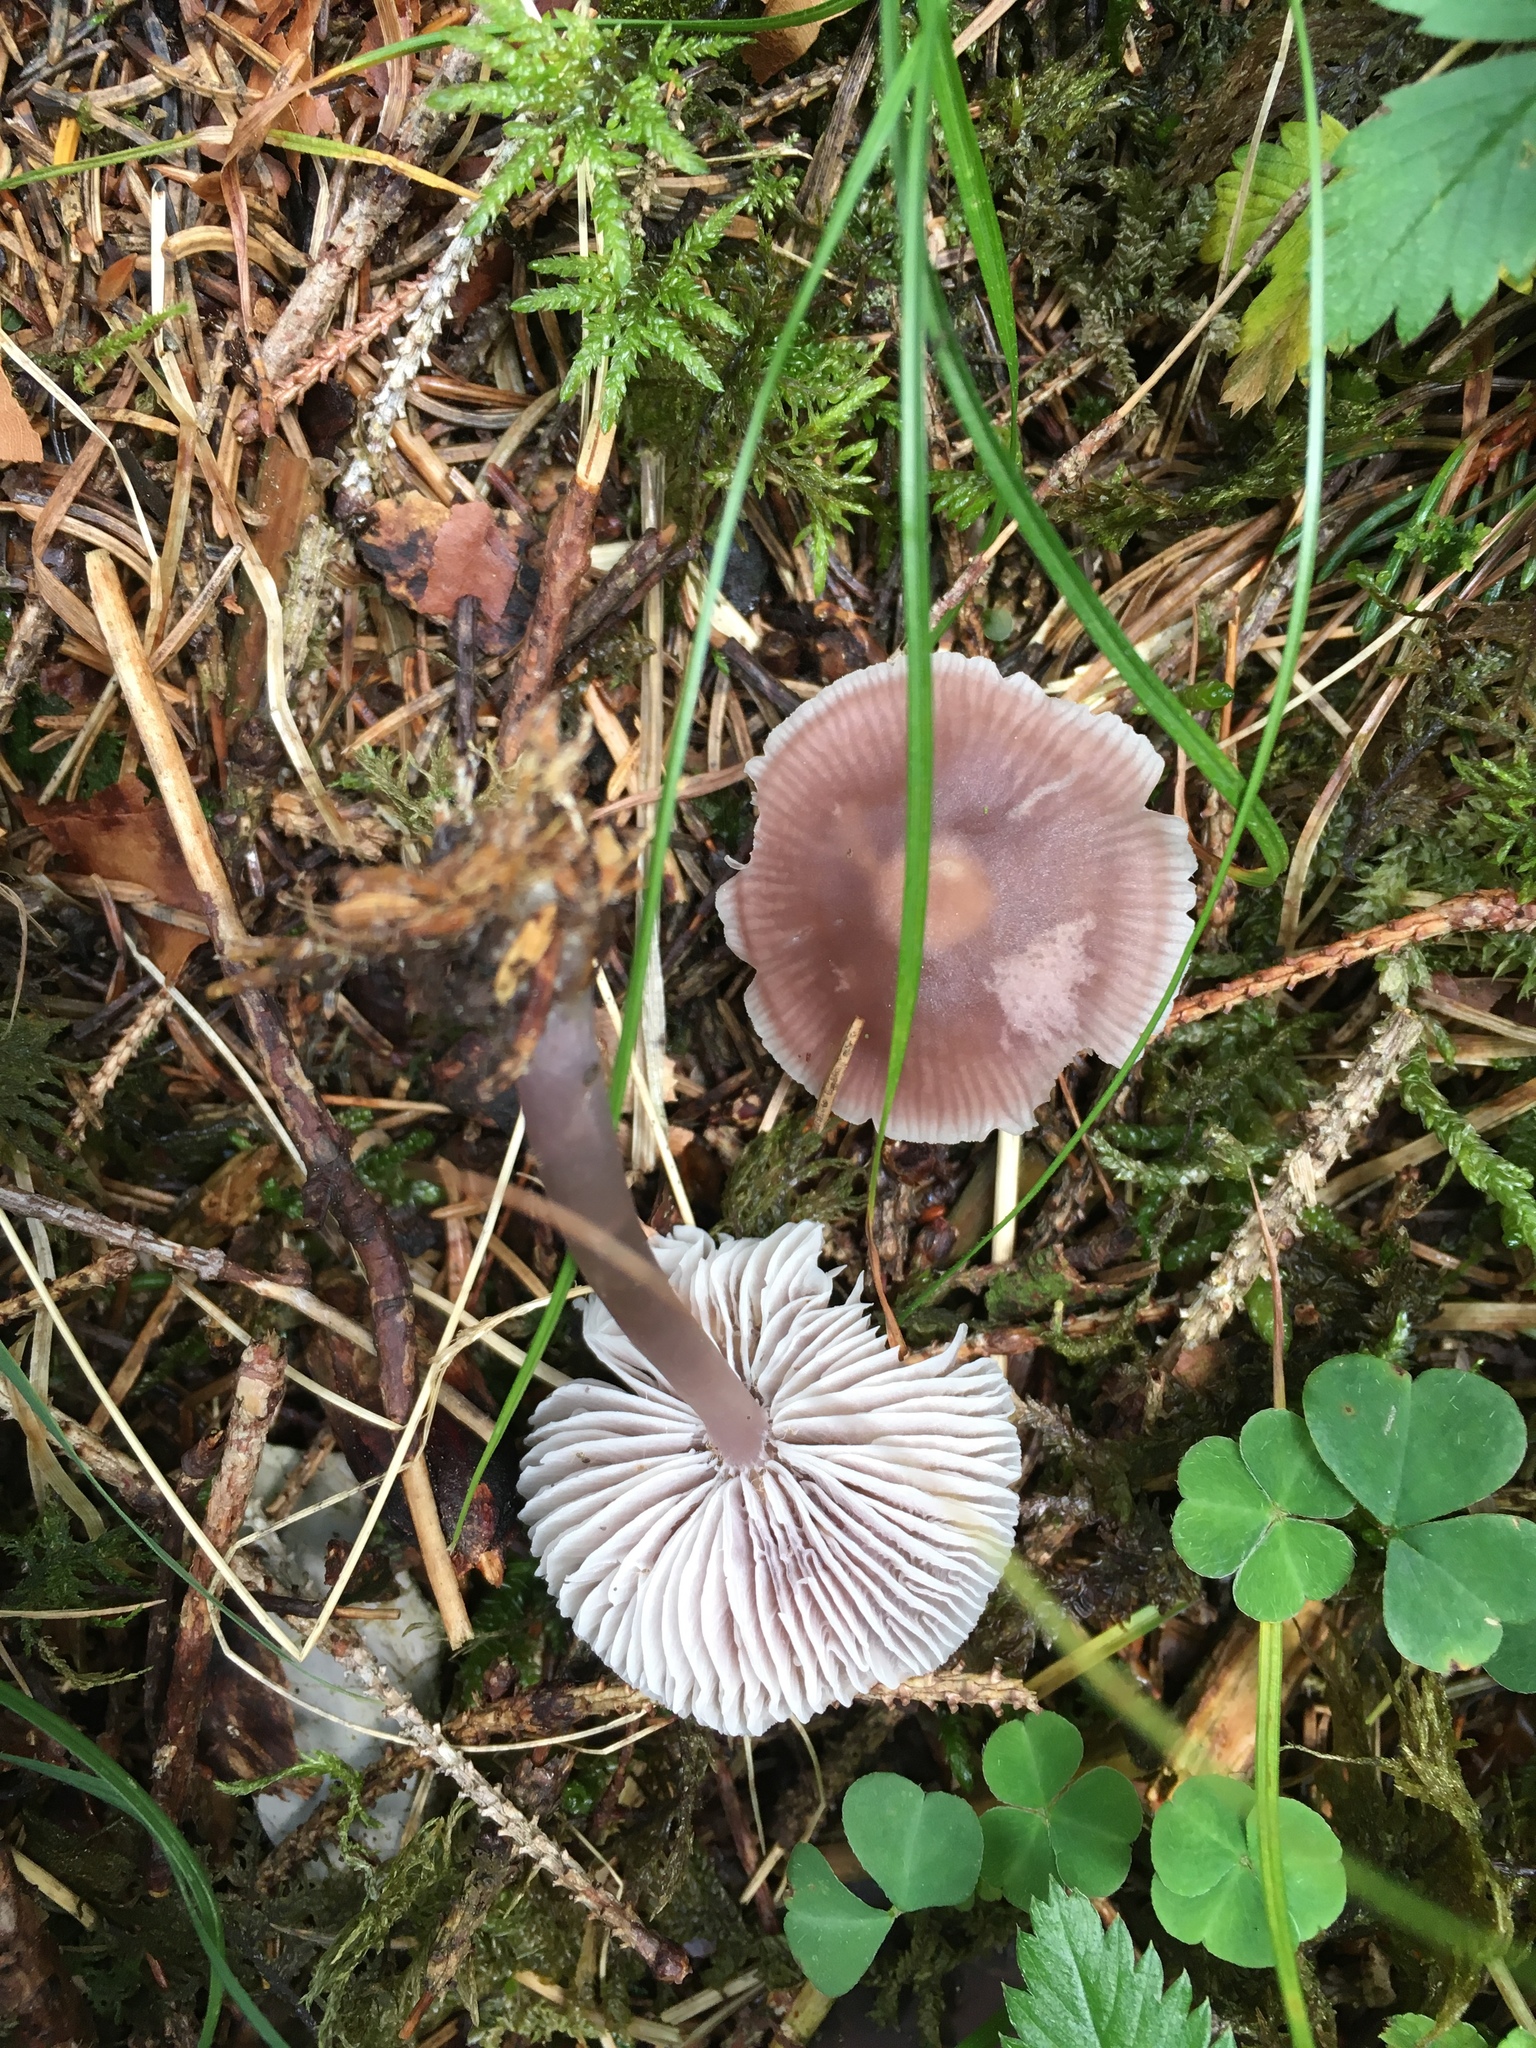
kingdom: Fungi
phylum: Basidiomycota
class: Agaricomycetes
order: Agaricales
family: Mycenaceae
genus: Mycena
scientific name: Mycena pura
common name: Lilac bonnet
